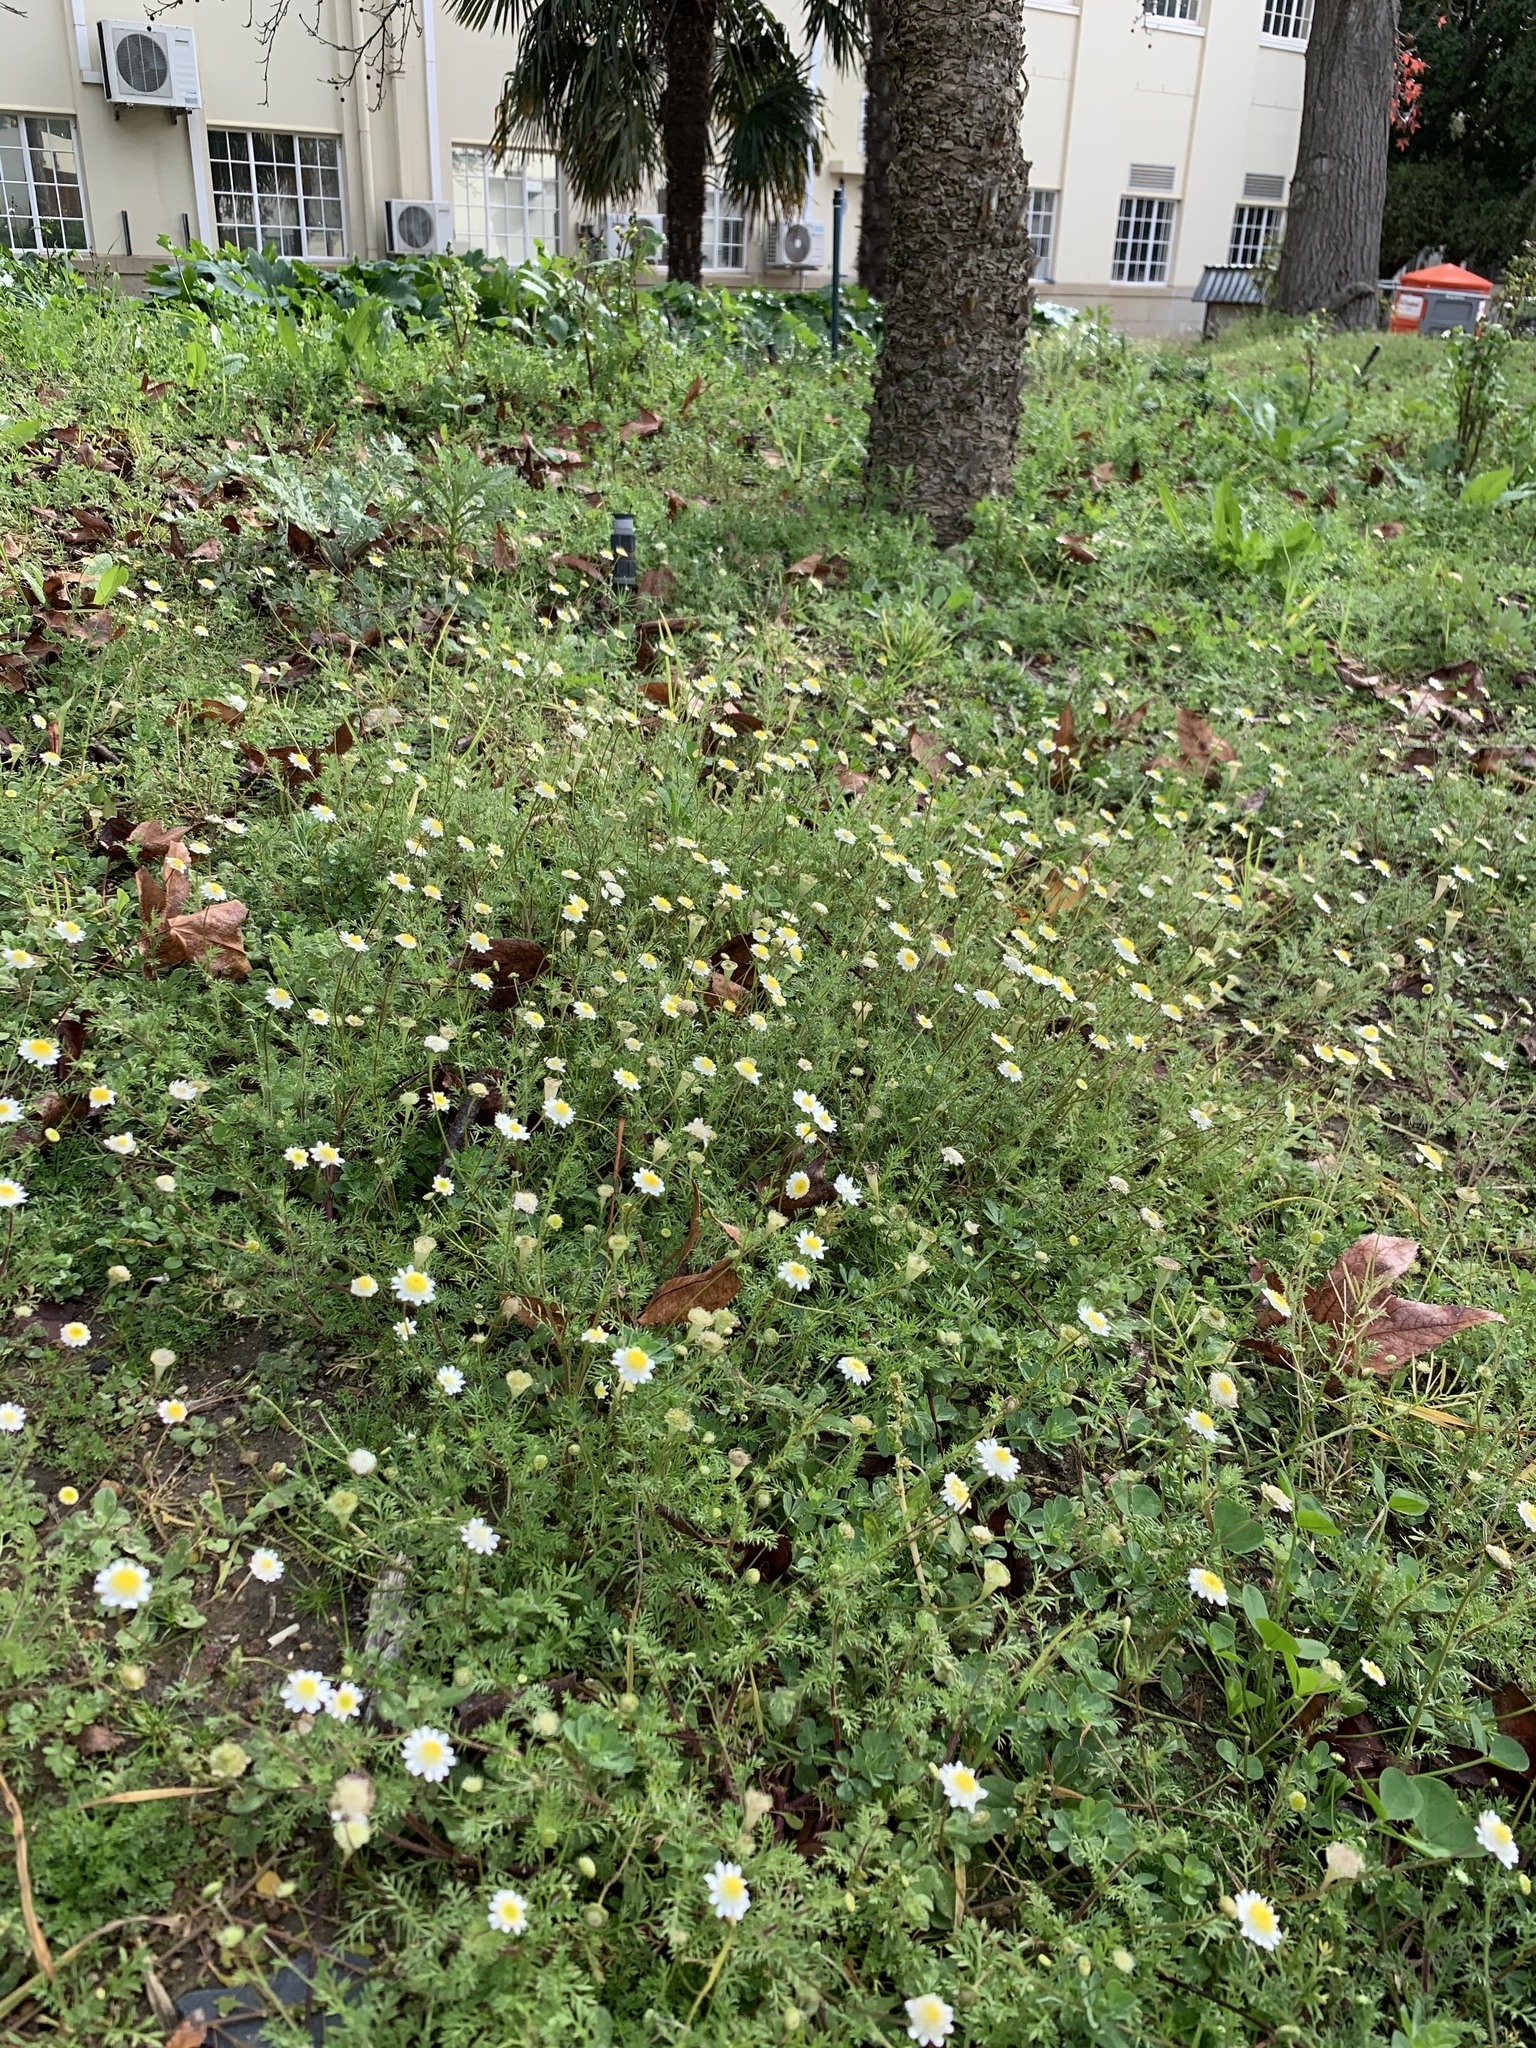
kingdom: Plantae
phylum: Tracheophyta
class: Magnoliopsida
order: Asterales
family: Asteraceae
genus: Cotula
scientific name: Cotula turbinata
